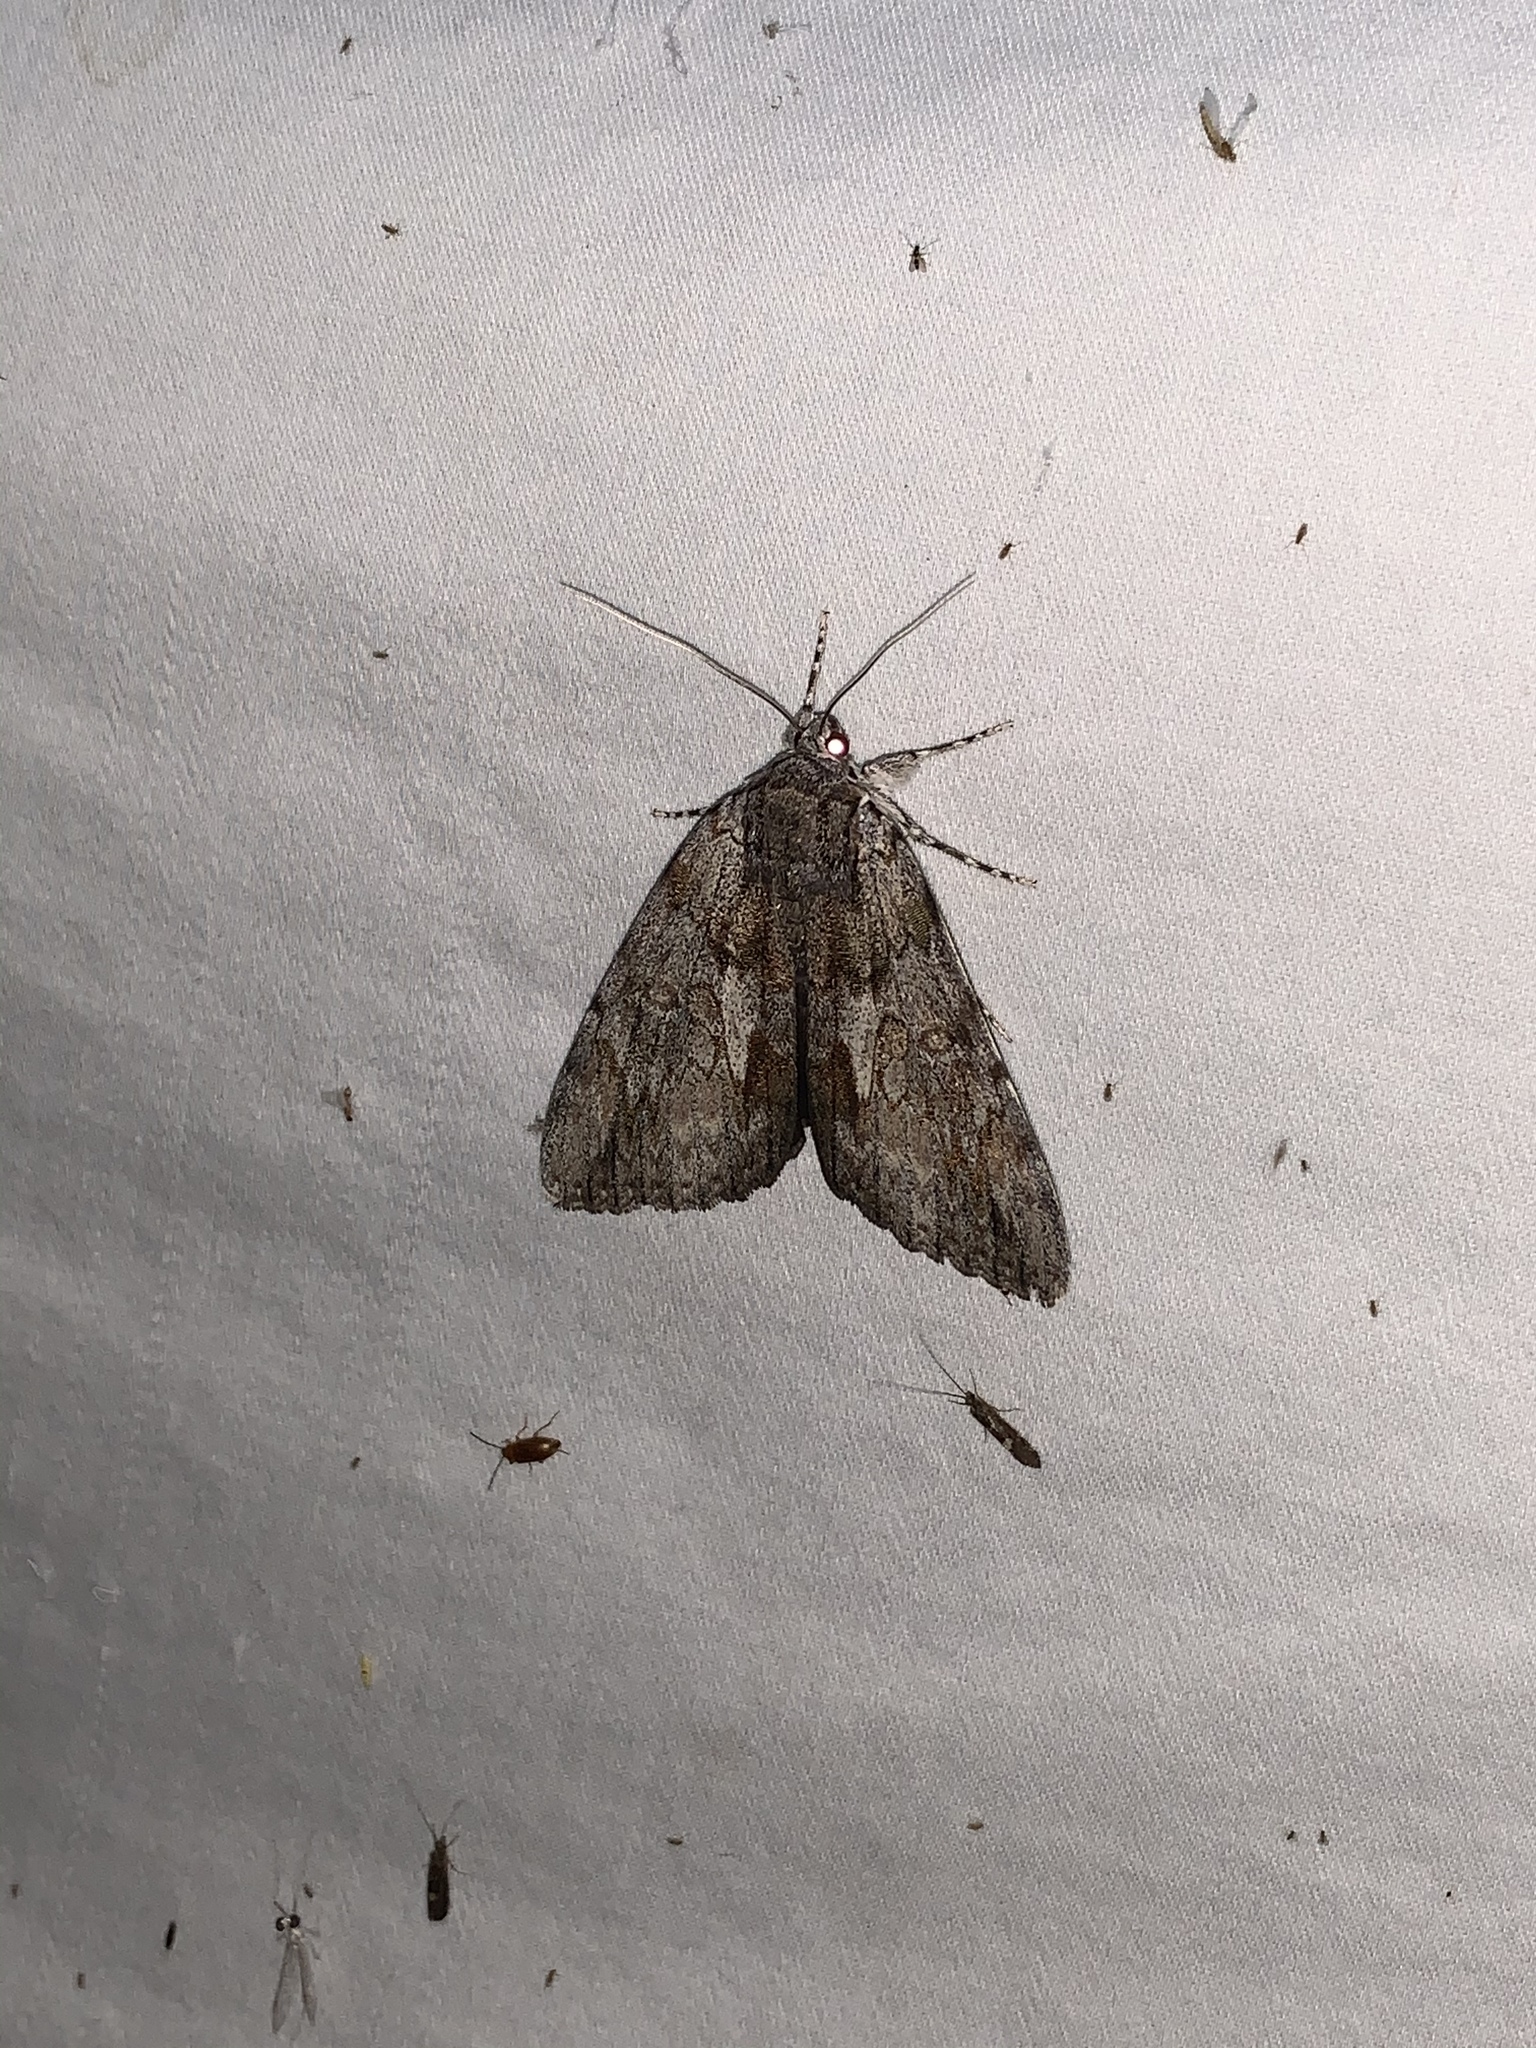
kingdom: Animalia
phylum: Arthropoda
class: Insecta
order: Lepidoptera
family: Erebidae
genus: Catocala
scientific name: Catocala insolabilis
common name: Inconsolable underwing
